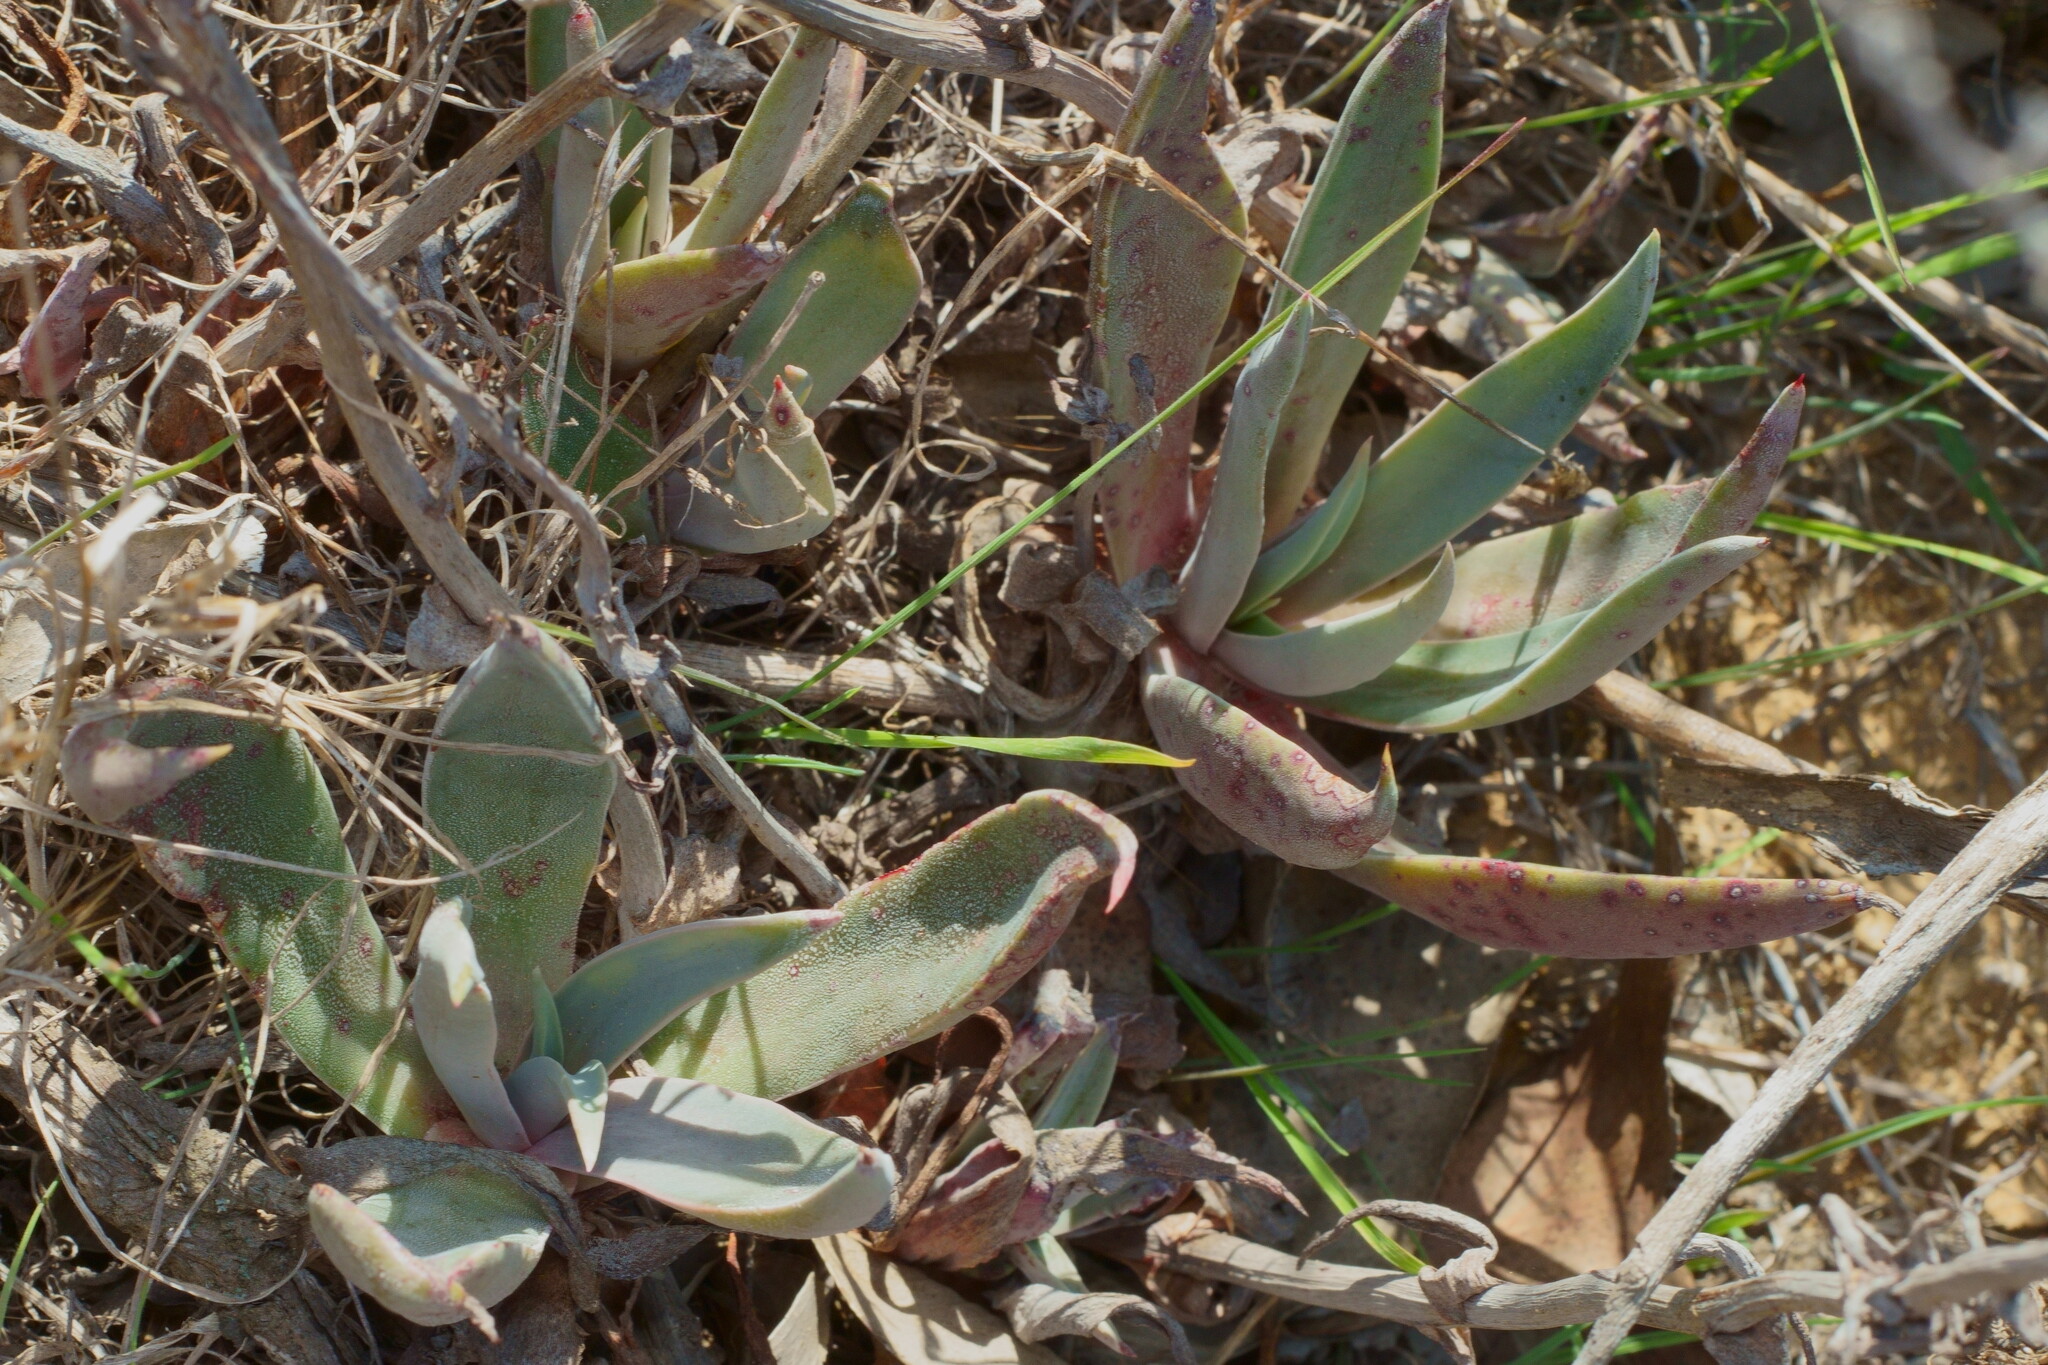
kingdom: Plantae
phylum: Tracheophyta
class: Magnoliopsida
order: Saxifragales
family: Crassulaceae
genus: Dudleya
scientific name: Dudleya lanceolata
